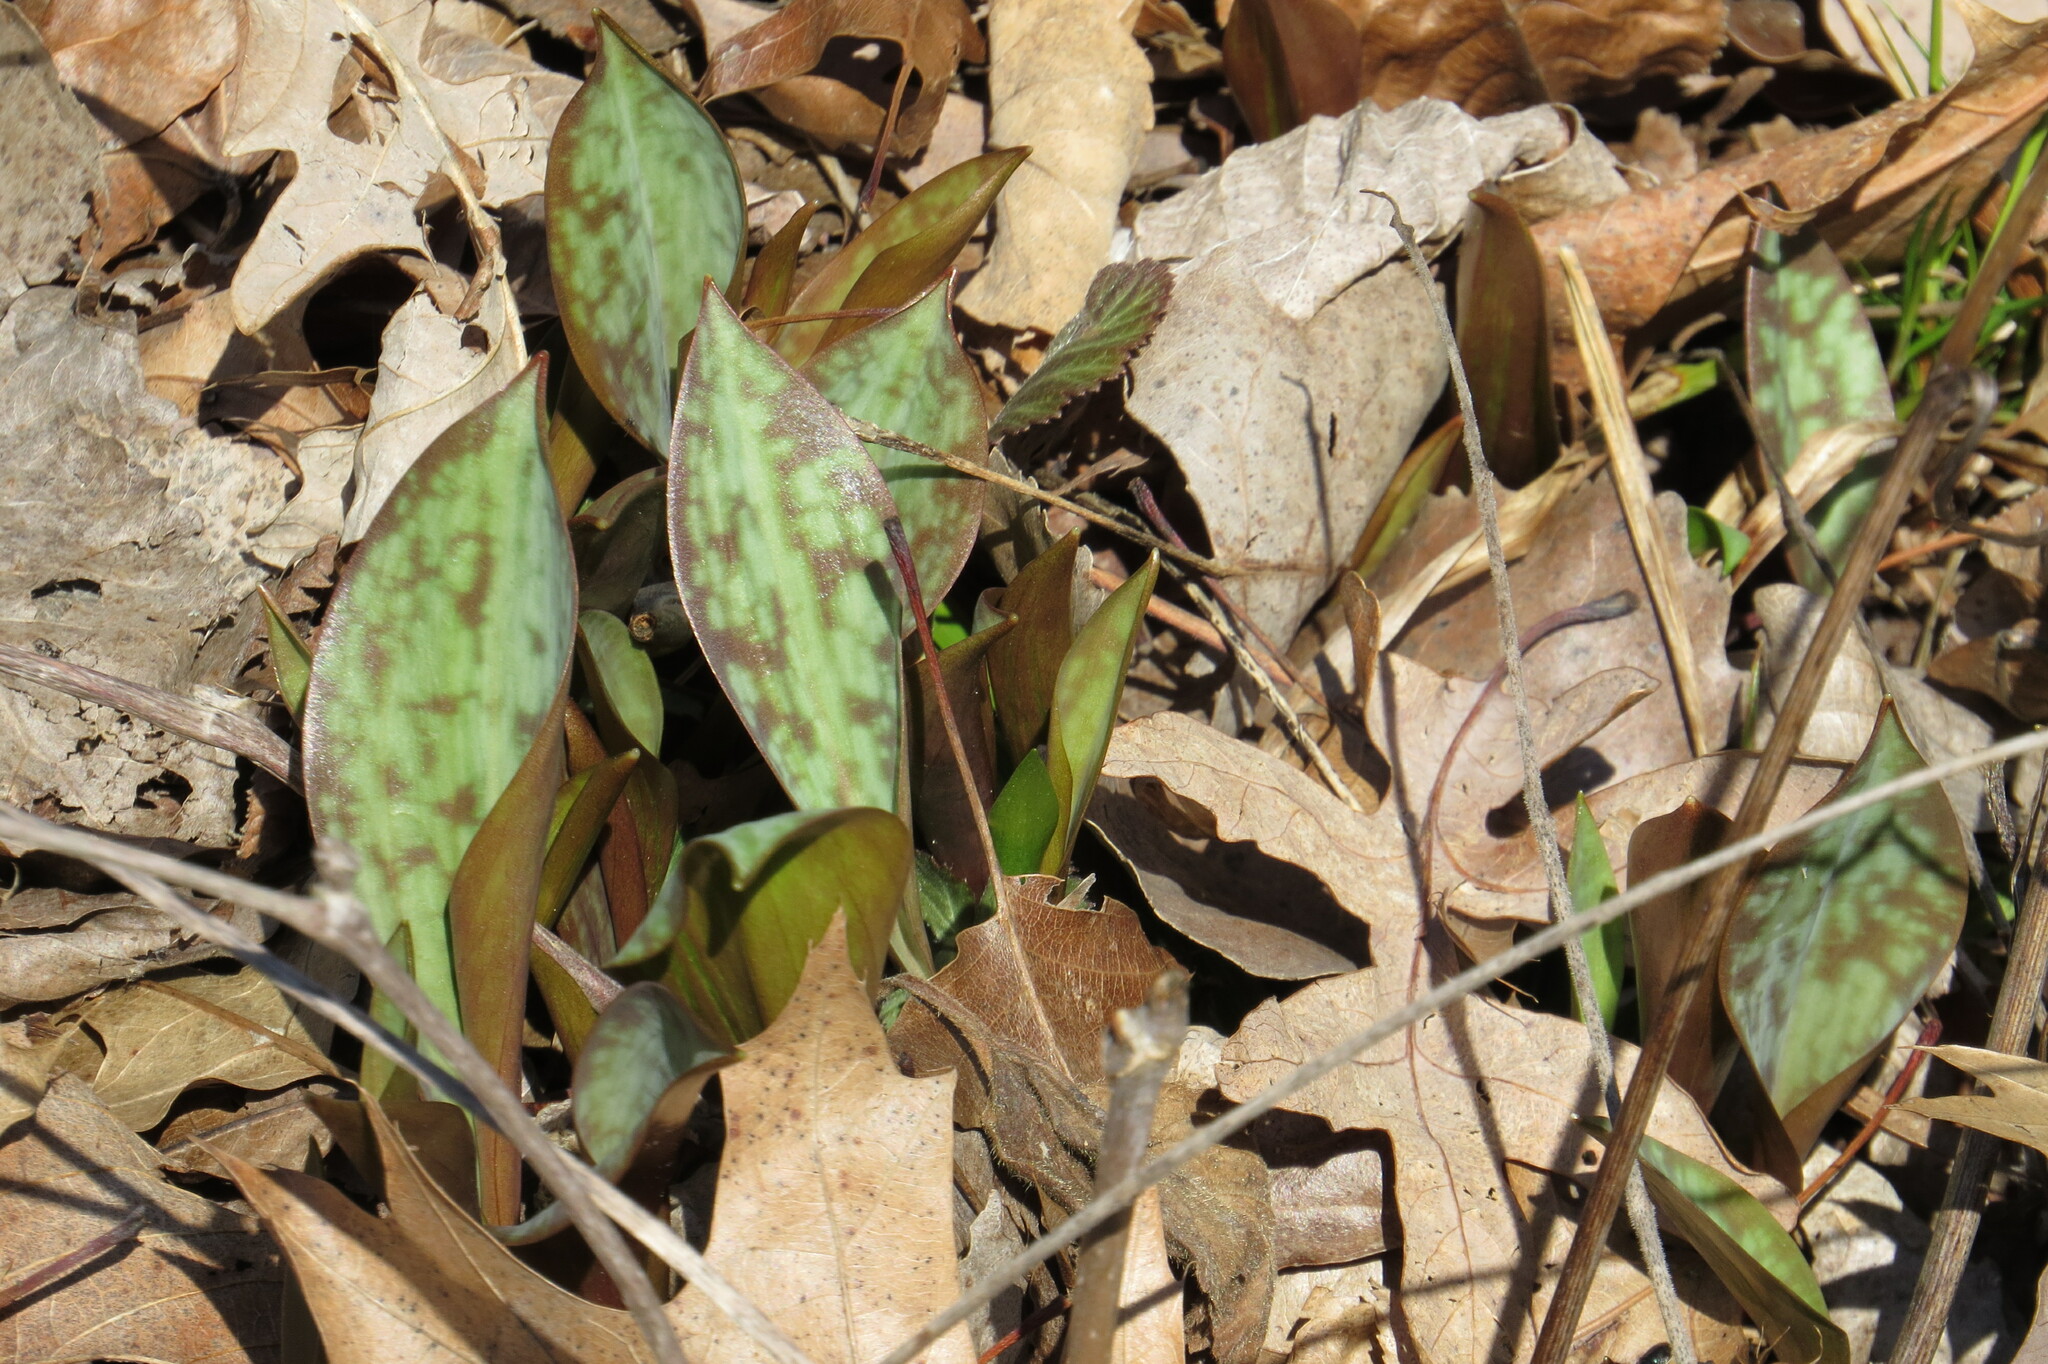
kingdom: Plantae
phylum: Tracheophyta
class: Liliopsida
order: Liliales
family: Liliaceae
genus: Erythronium
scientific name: Erythronium americanum
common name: Yellow adder's-tongue
